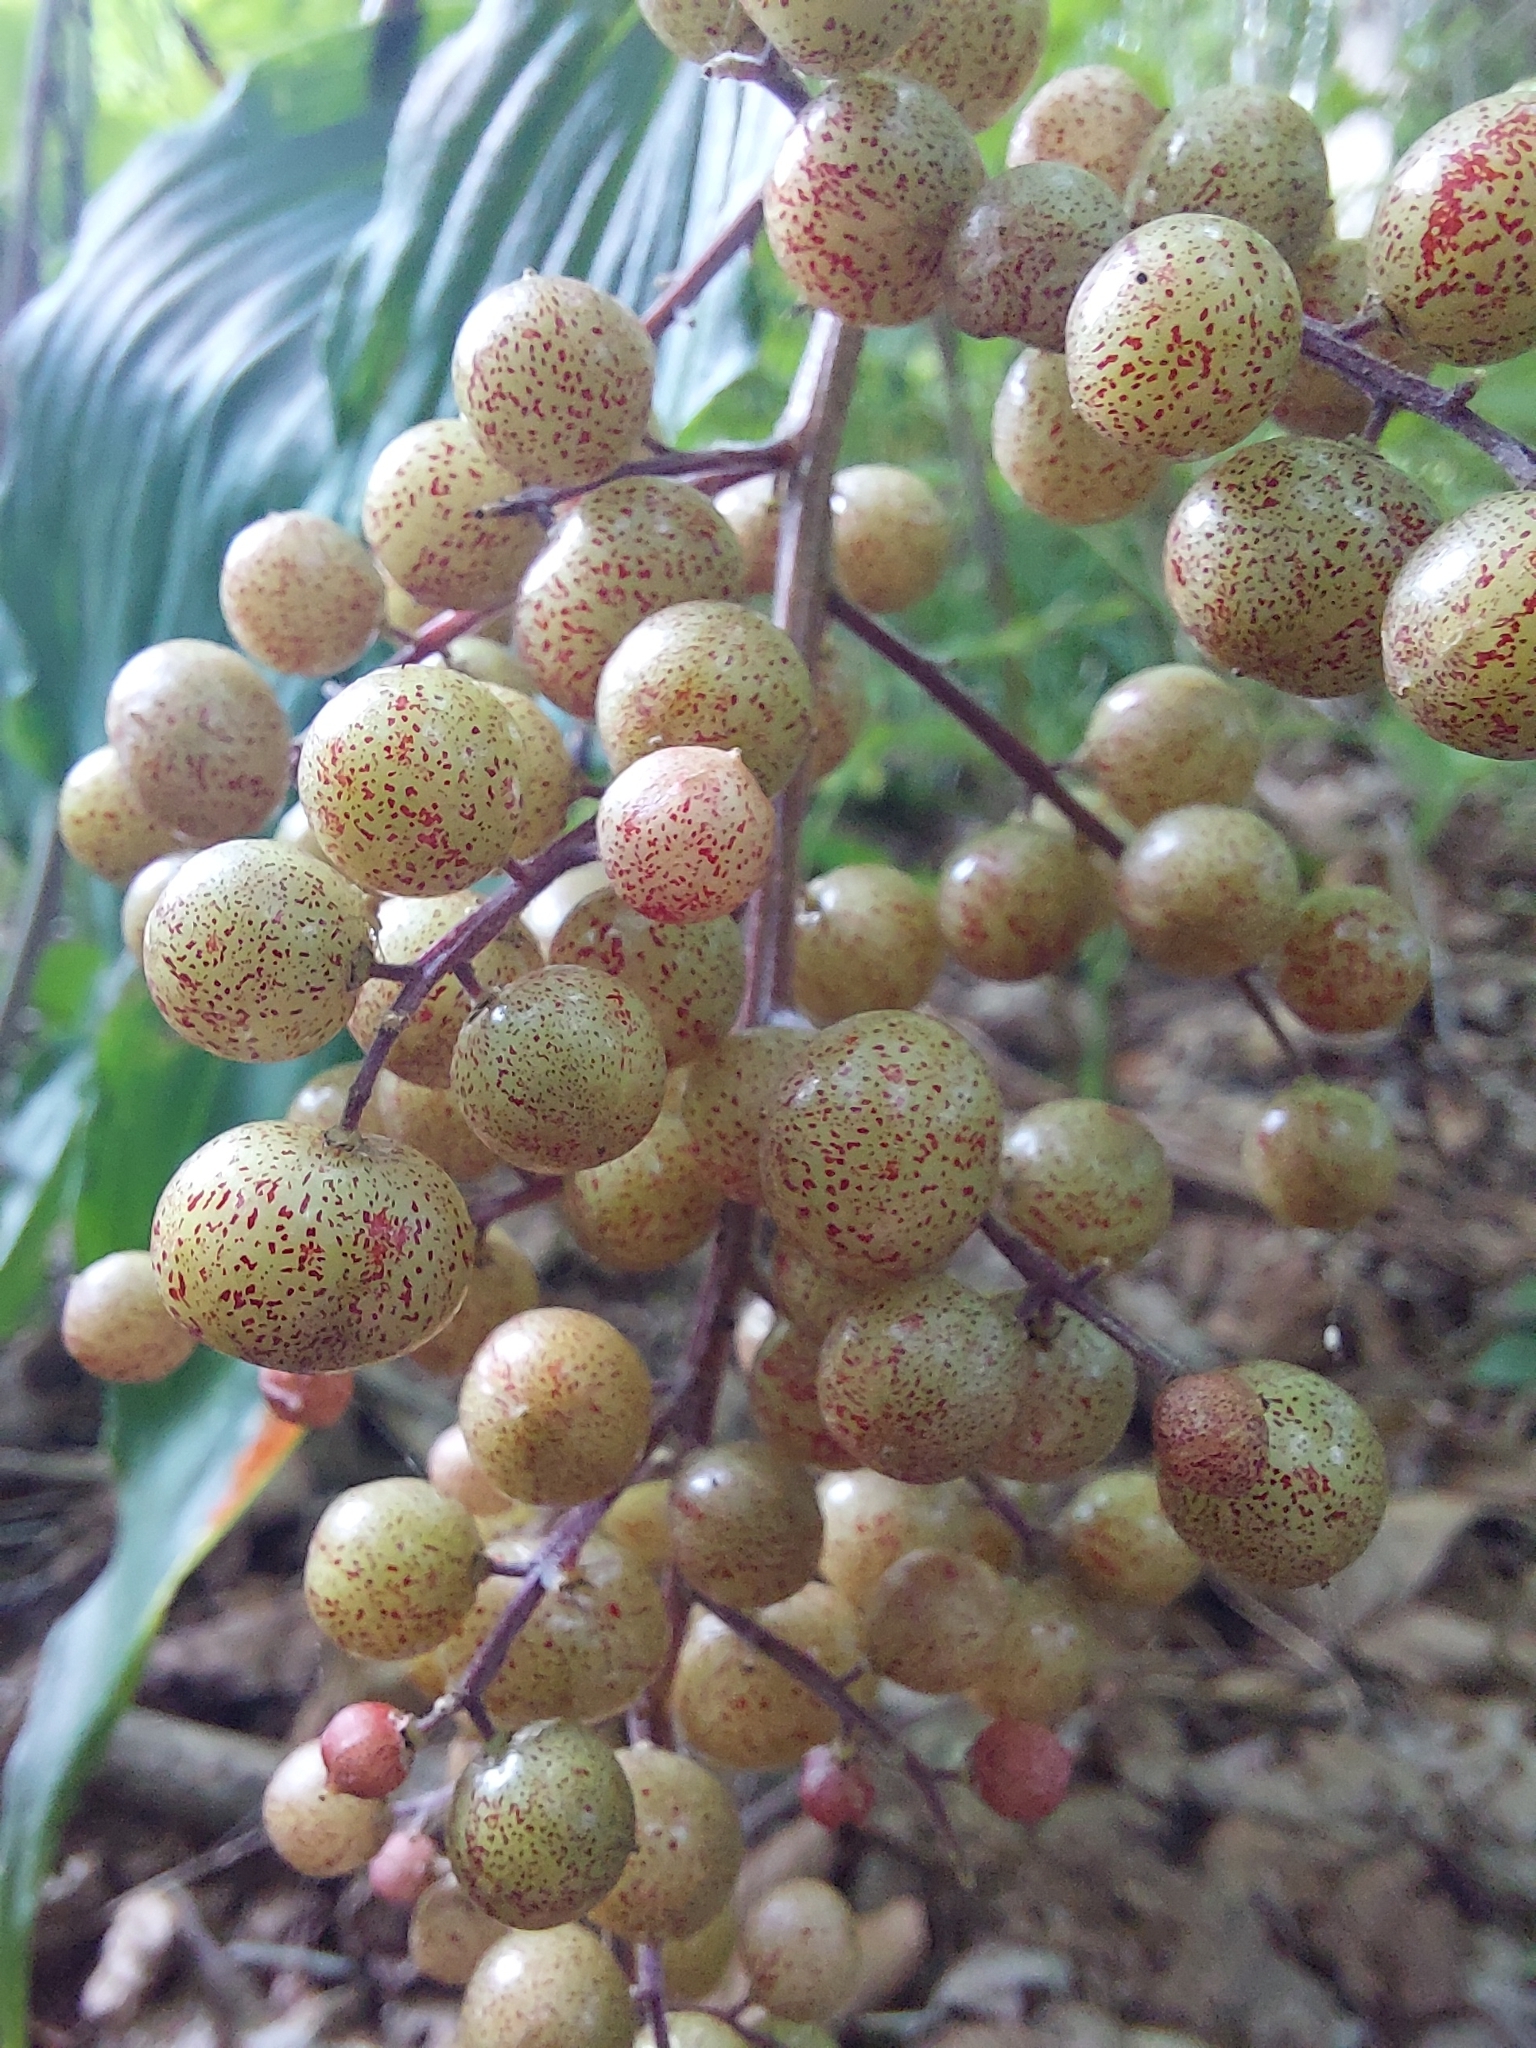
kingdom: Plantae
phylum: Tracheophyta
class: Liliopsida
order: Asparagales
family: Asparagaceae
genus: Maianthemum
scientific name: Maianthemum racemosum
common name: False spikenard
